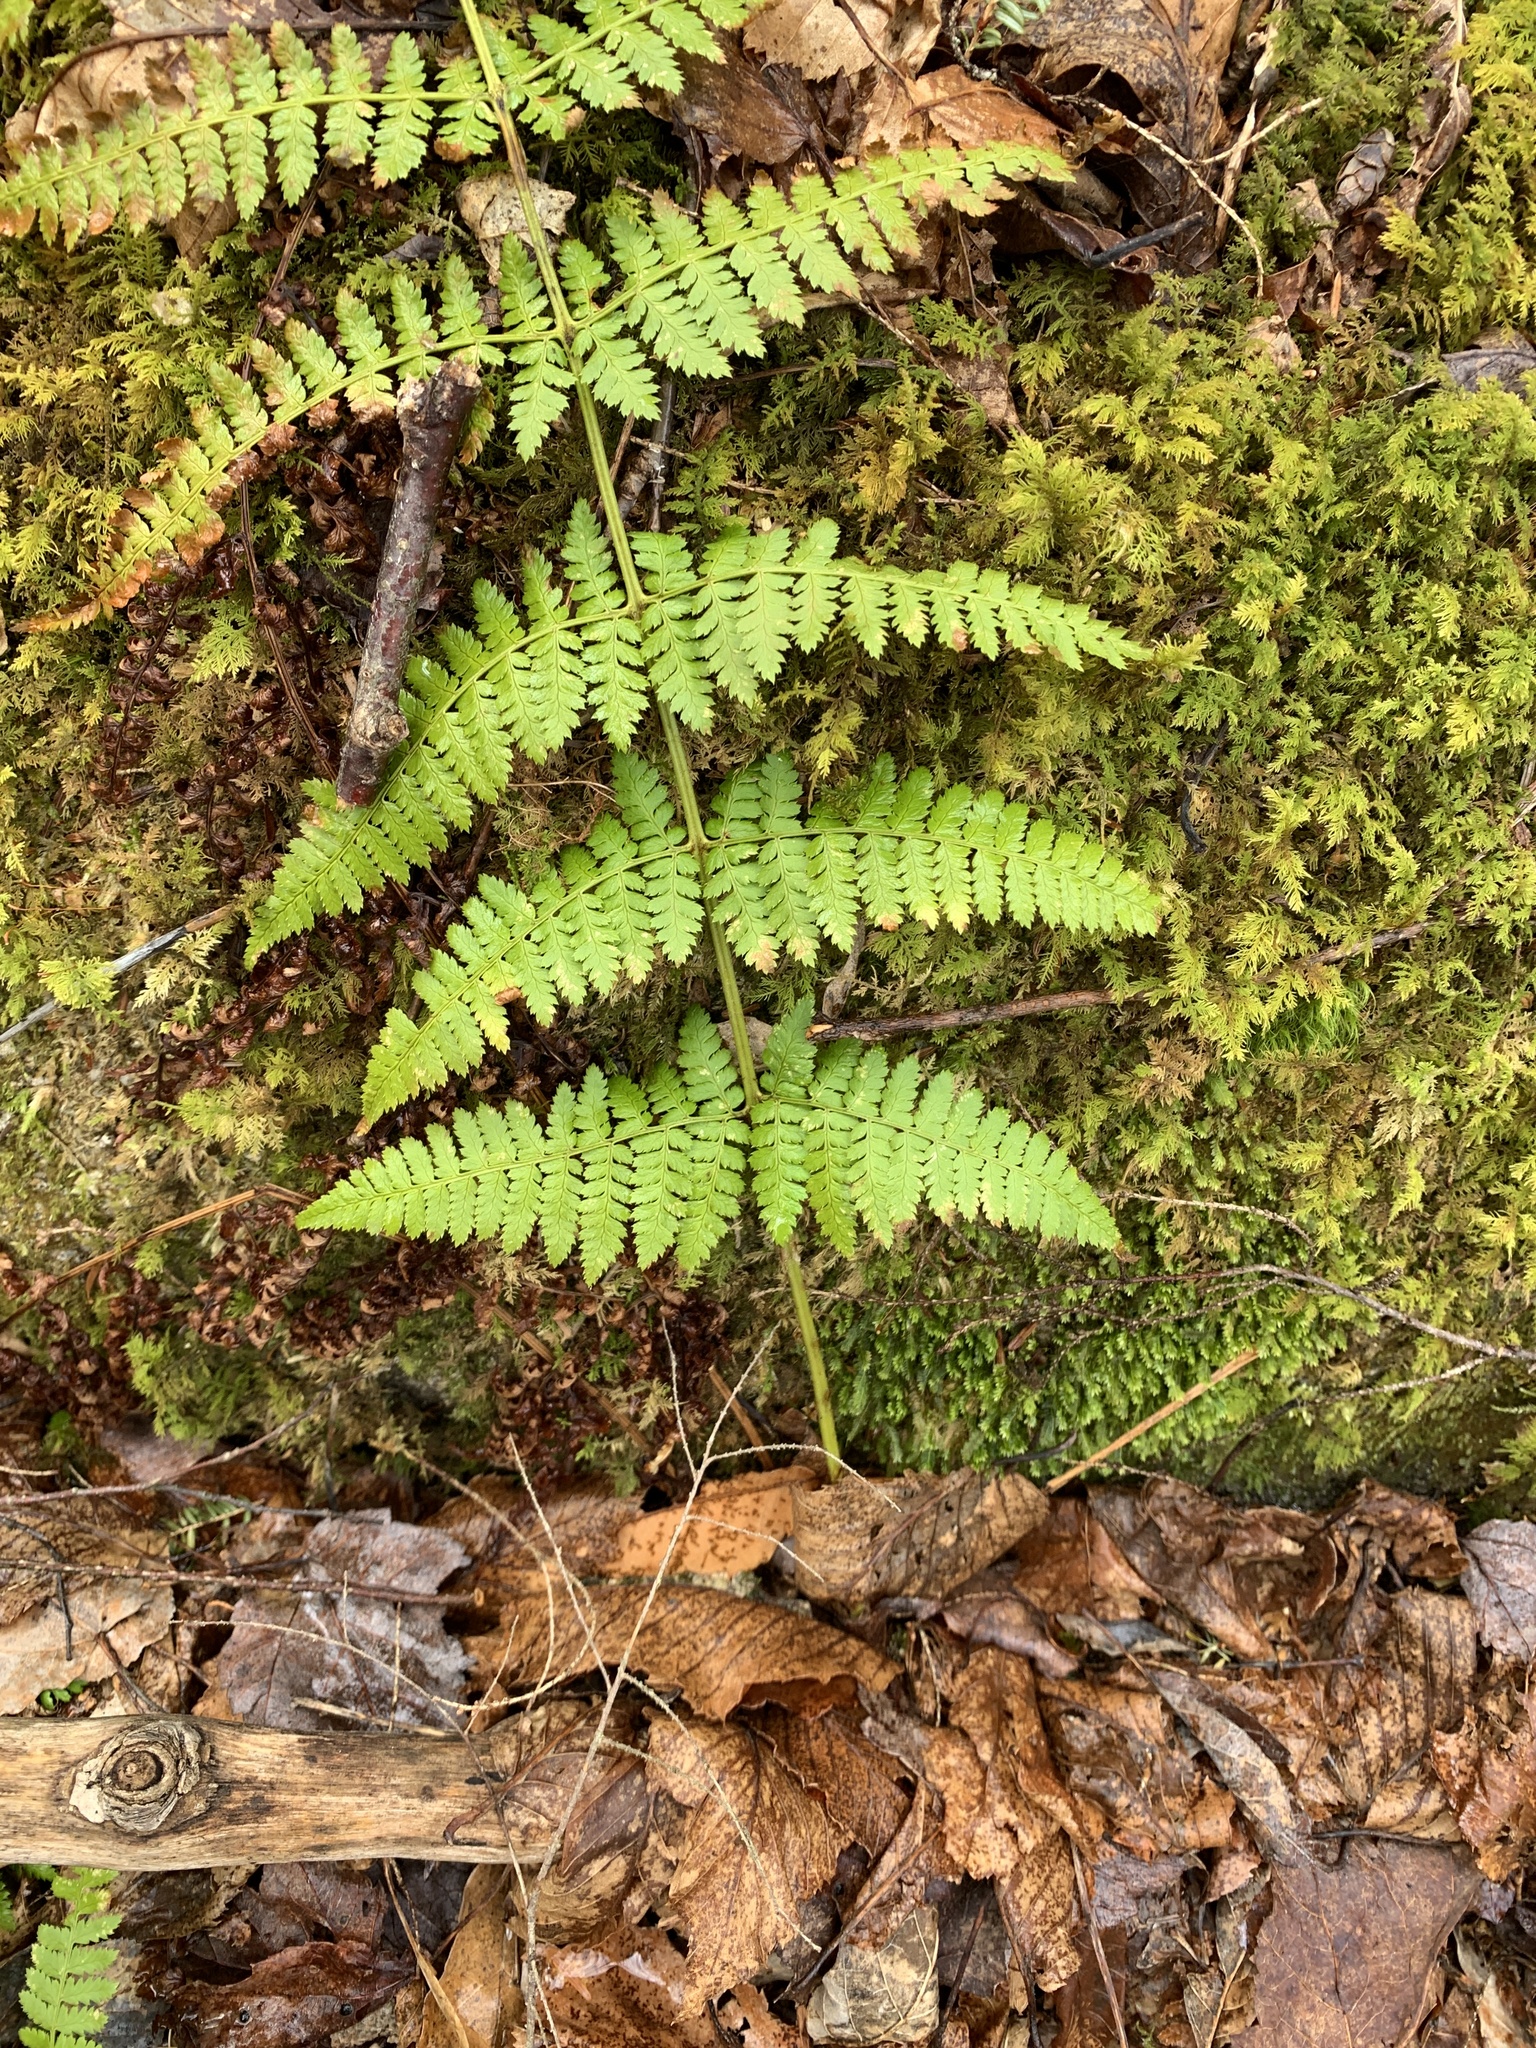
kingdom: Plantae
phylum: Tracheophyta
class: Polypodiopsida
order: Polypodiales
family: Dryopteridaceae
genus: Dryopteris
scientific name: Dryopteris intermedia
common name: Evergreen wood fern
